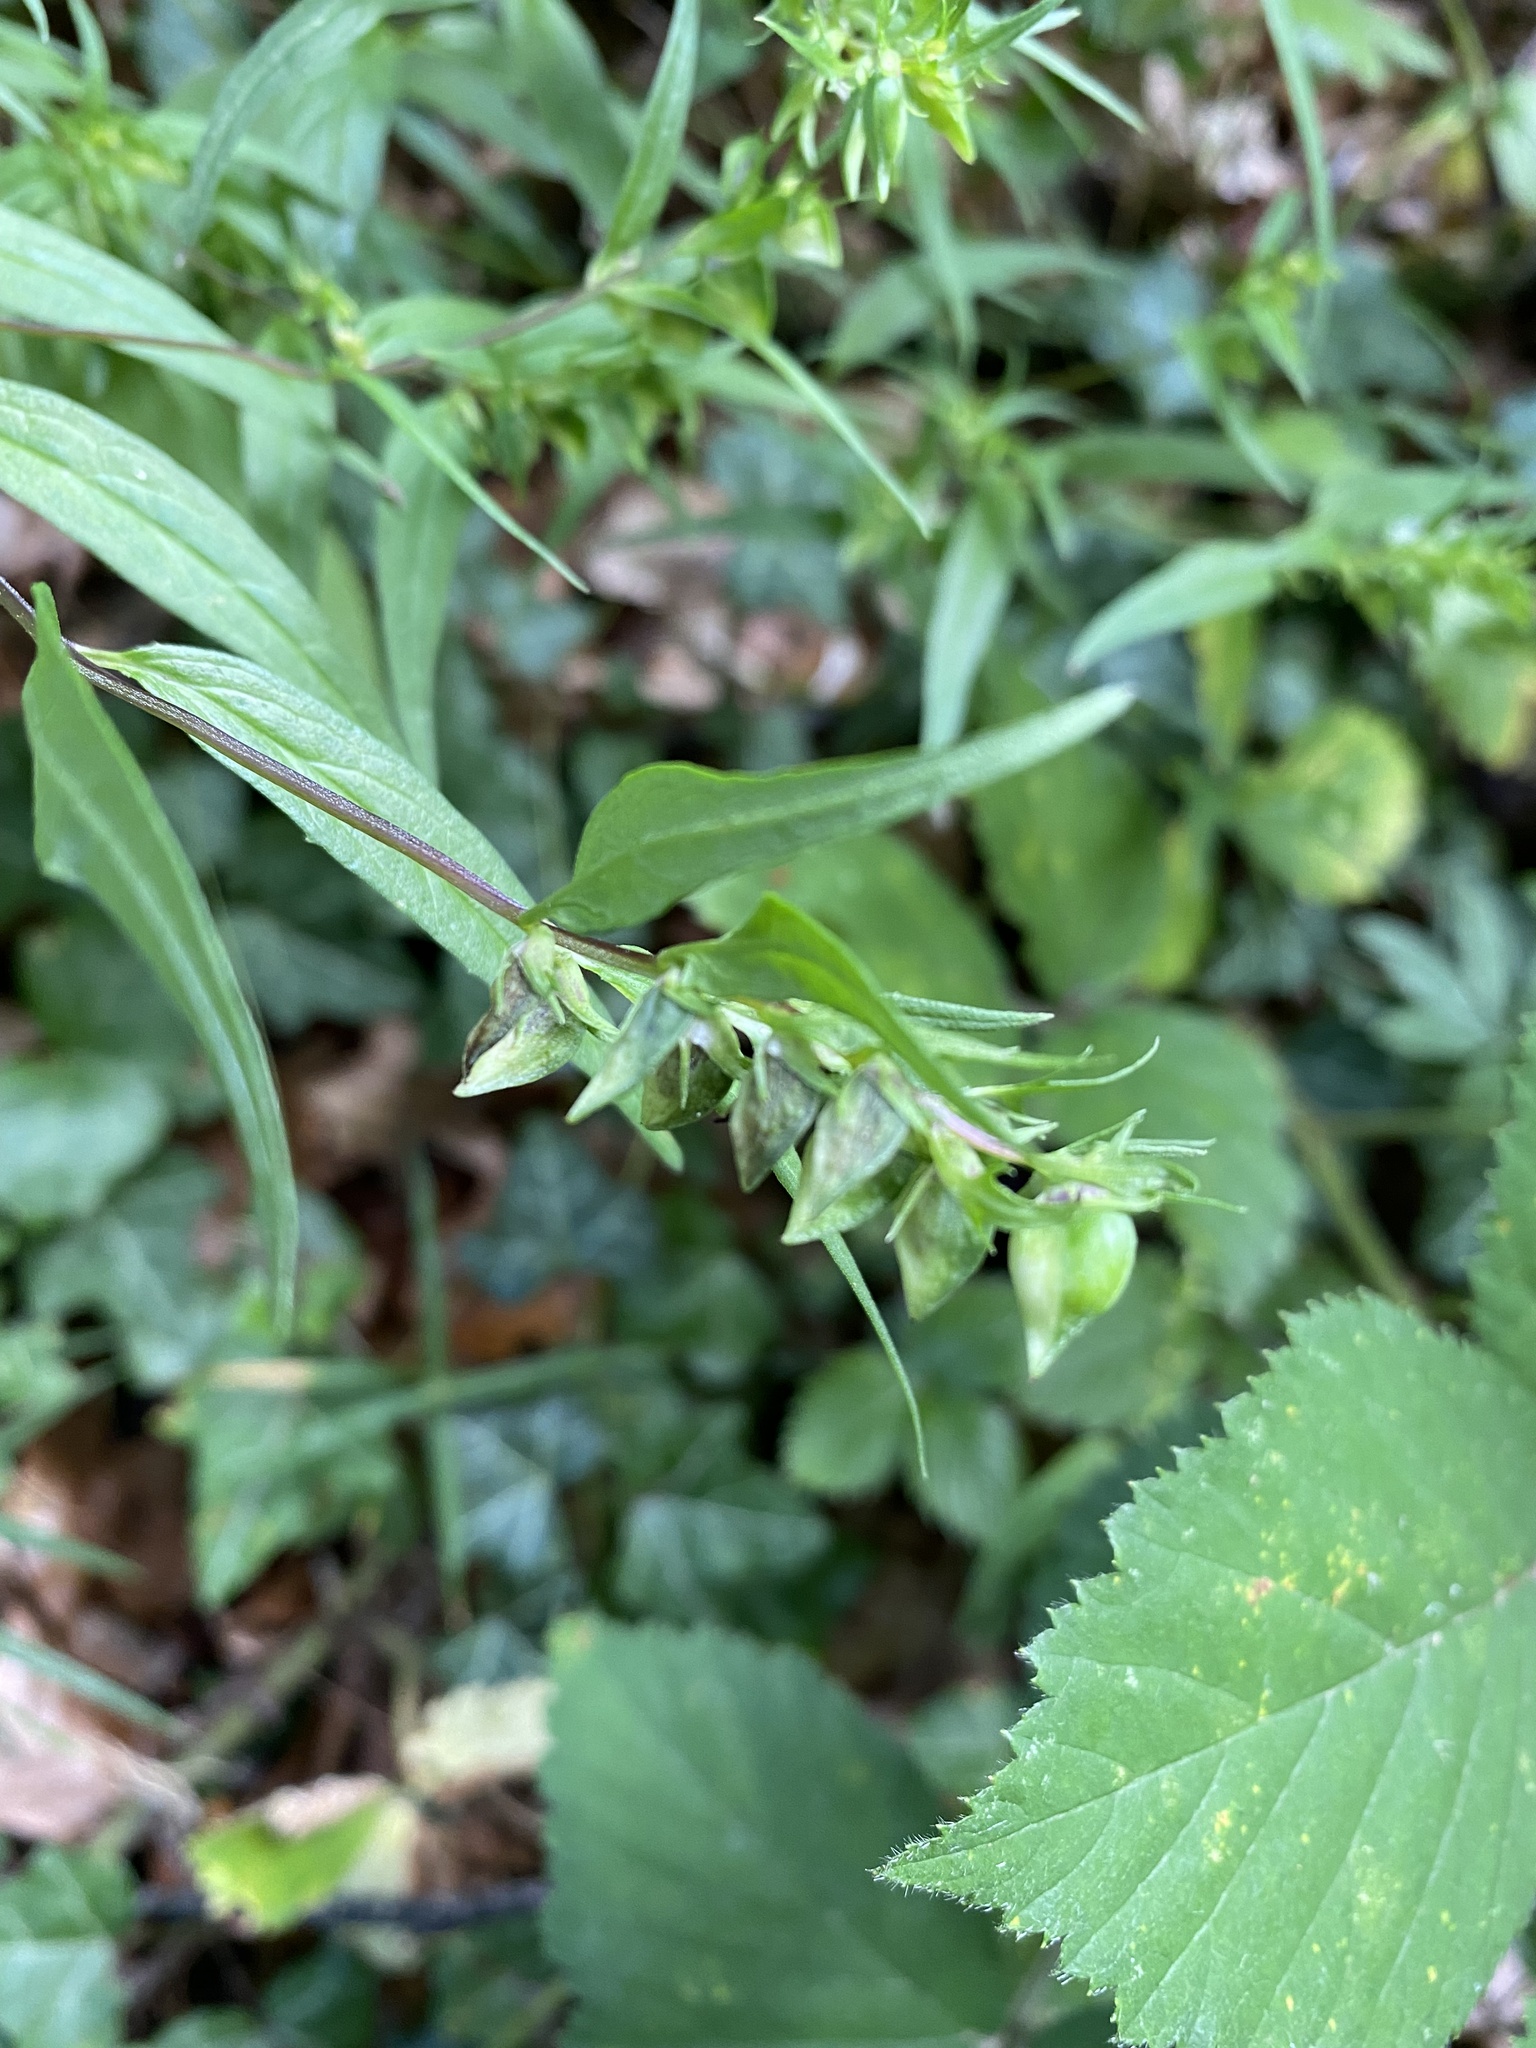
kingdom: Plantae
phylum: Tracheophyta
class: Magnoliopsida
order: Lamiales
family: Orobanchaceae
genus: Melampyrum
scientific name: Melampyrum pratense
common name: Common cow-wheat
